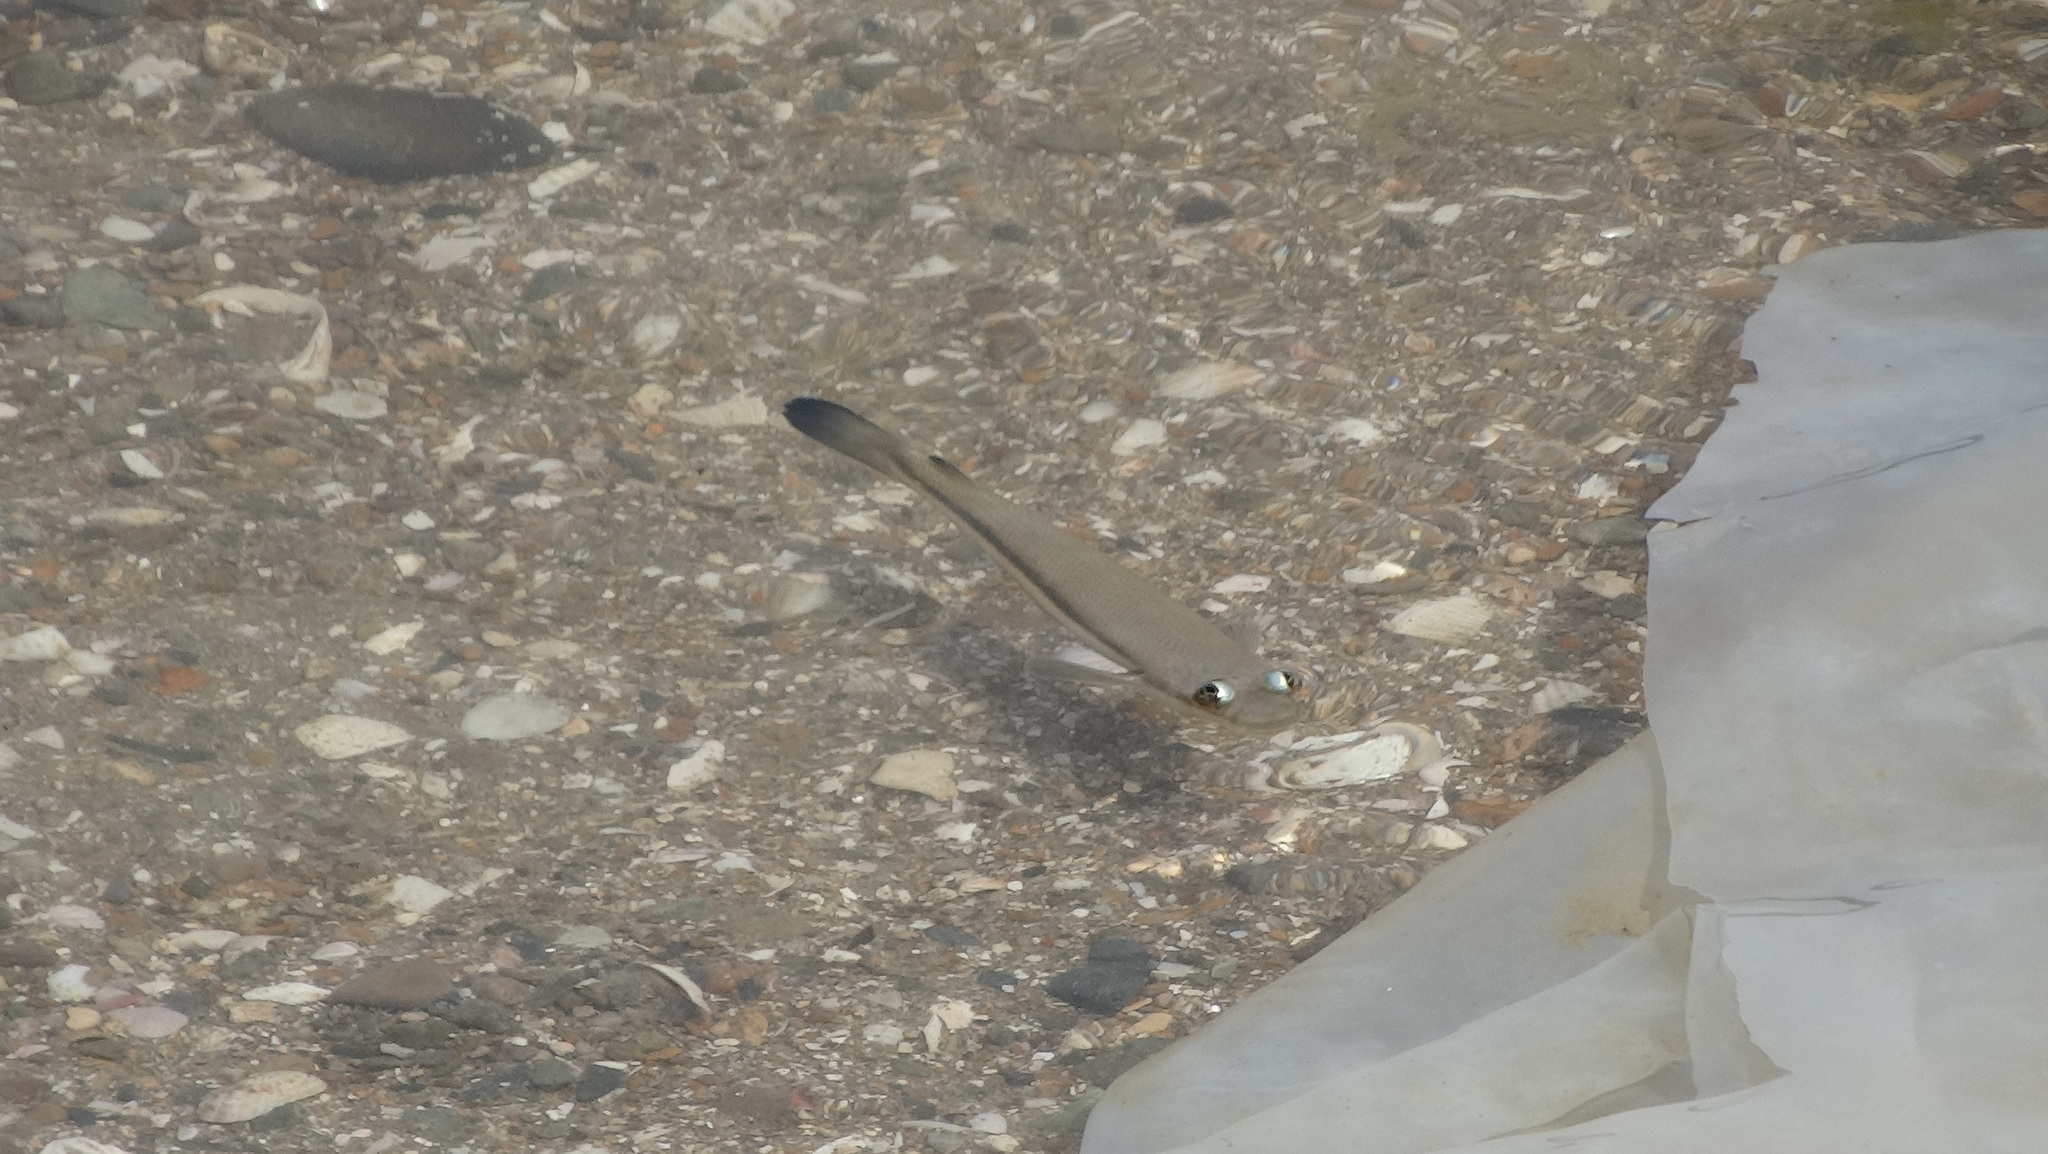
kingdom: Animalia
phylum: Chordata
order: Cyprinodontiformes
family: Anablepidae
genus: Anableps
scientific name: Anableps dowei
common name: Pacific foureyed fish
